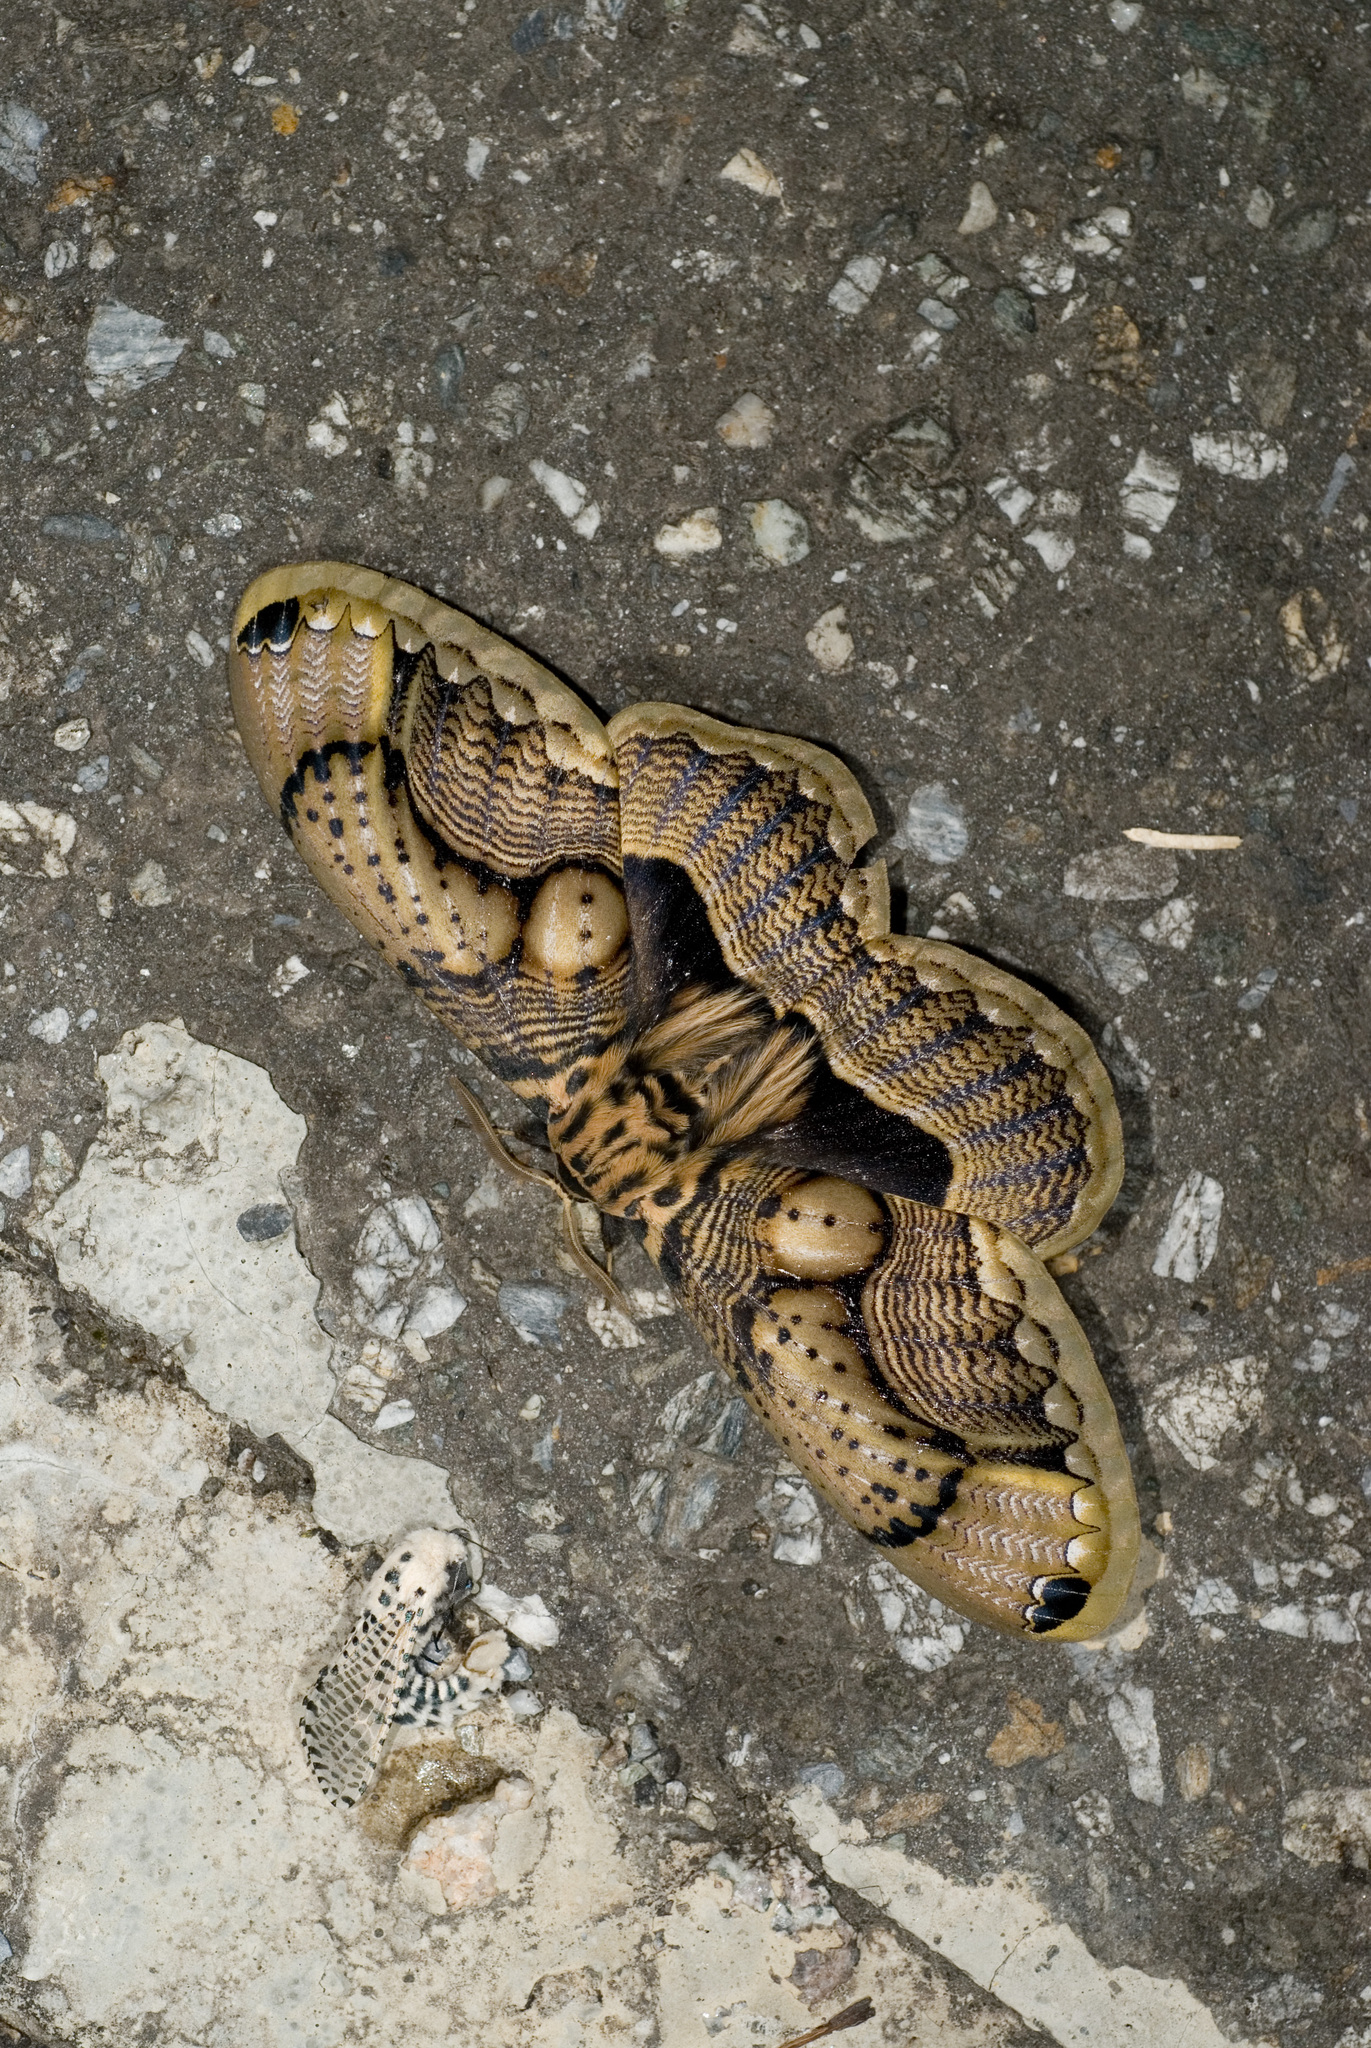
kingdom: Animalia
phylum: Arthropoda
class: Insecta
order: Lepidoptera
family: Brahmaeidae
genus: Brahmaea
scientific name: Brahmaea wallichii
